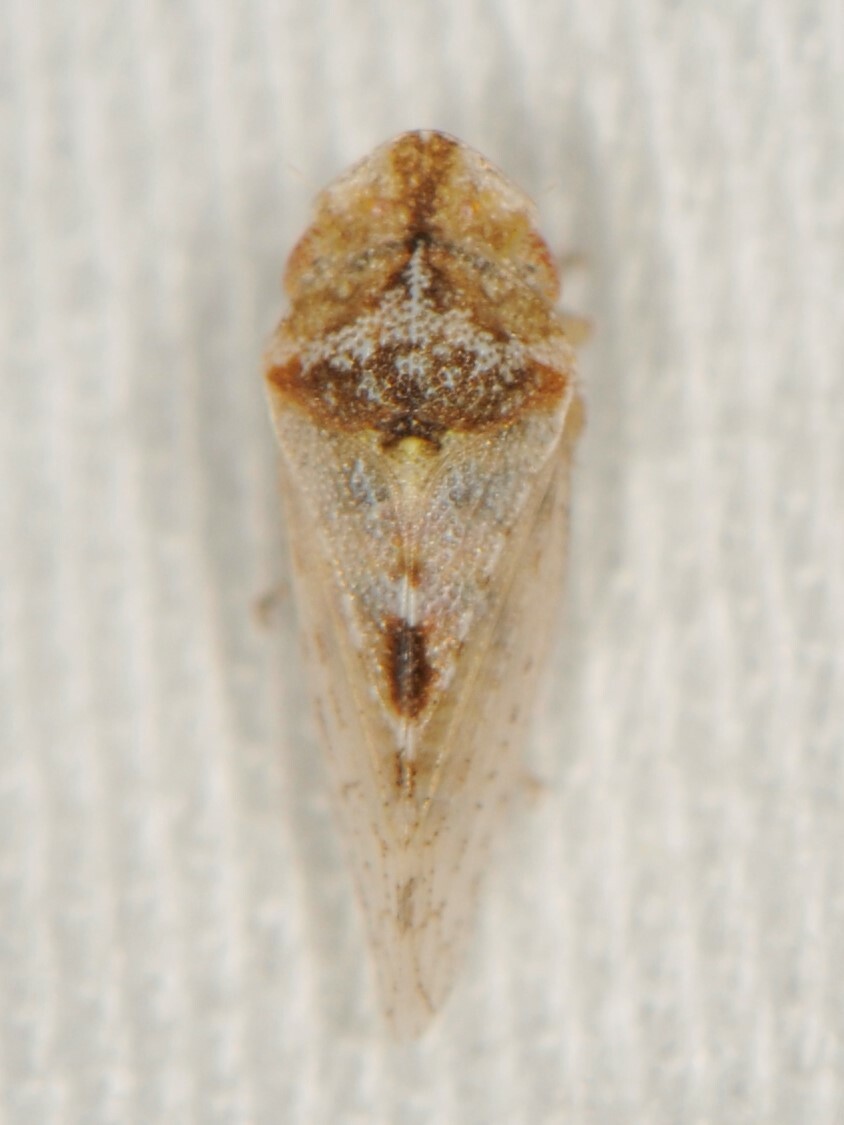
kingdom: Animalia
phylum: Arthropoda
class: Insecta
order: Hemiptera
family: Cicadellidae
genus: Xerophloea
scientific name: Xerophloea viridis
